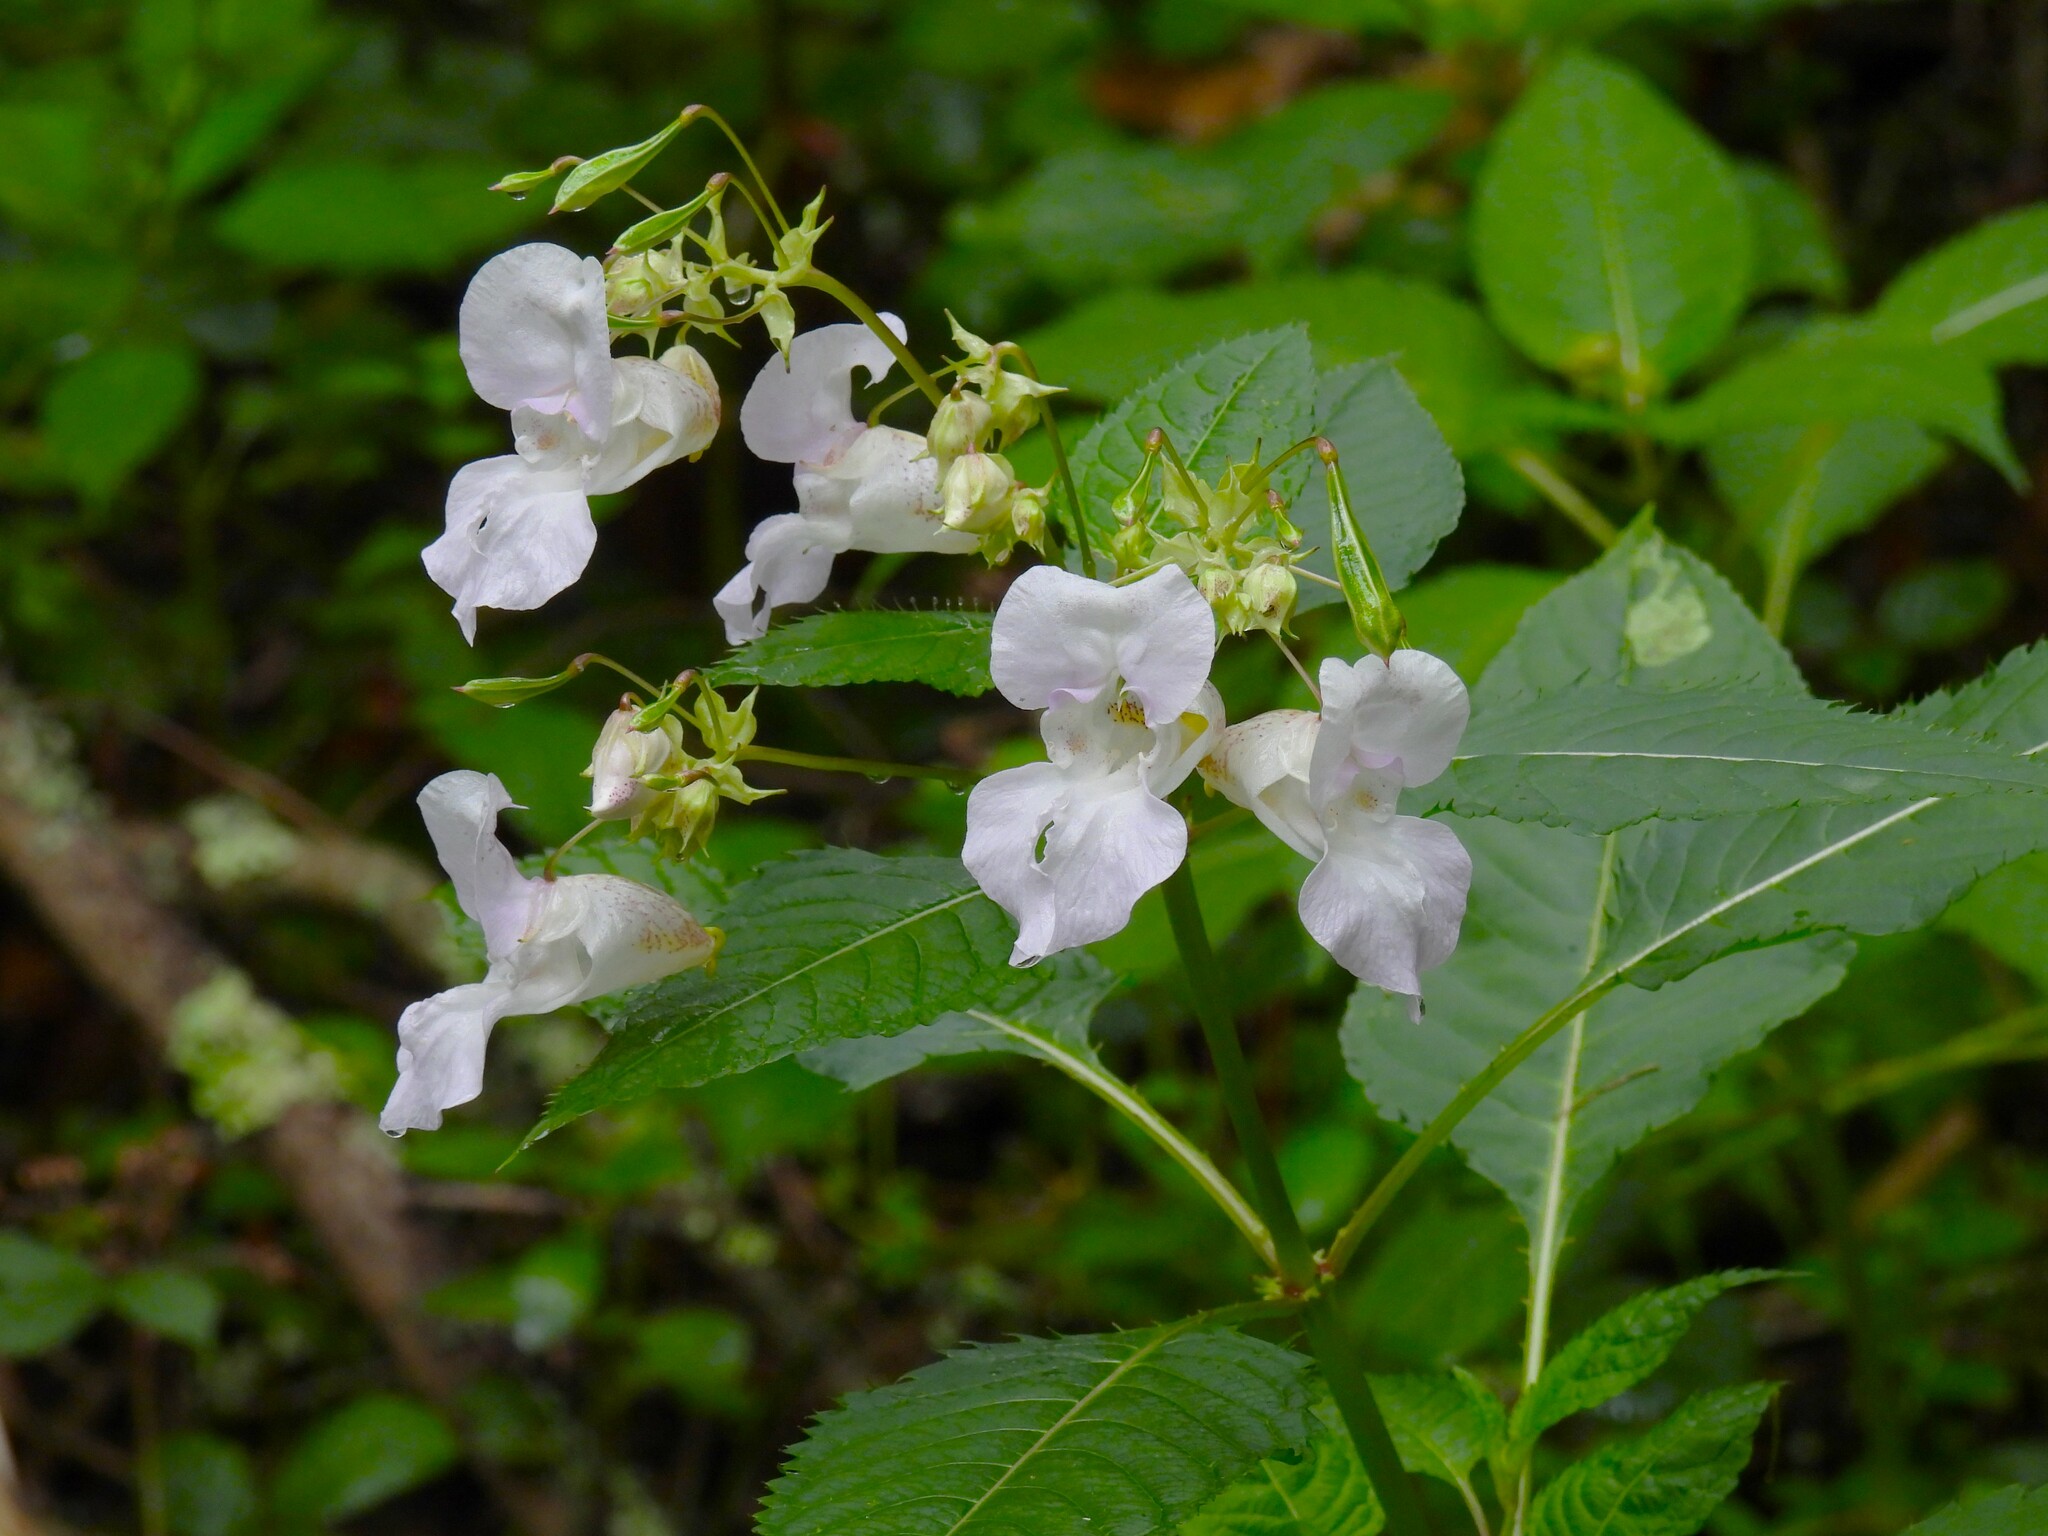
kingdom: Plantae
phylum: Tracheophyta
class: Magnoliopsida
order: Ericales
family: Balsaminaceae
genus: Impatiens
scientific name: Impatiens glandulifera
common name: Himalayan balsam
